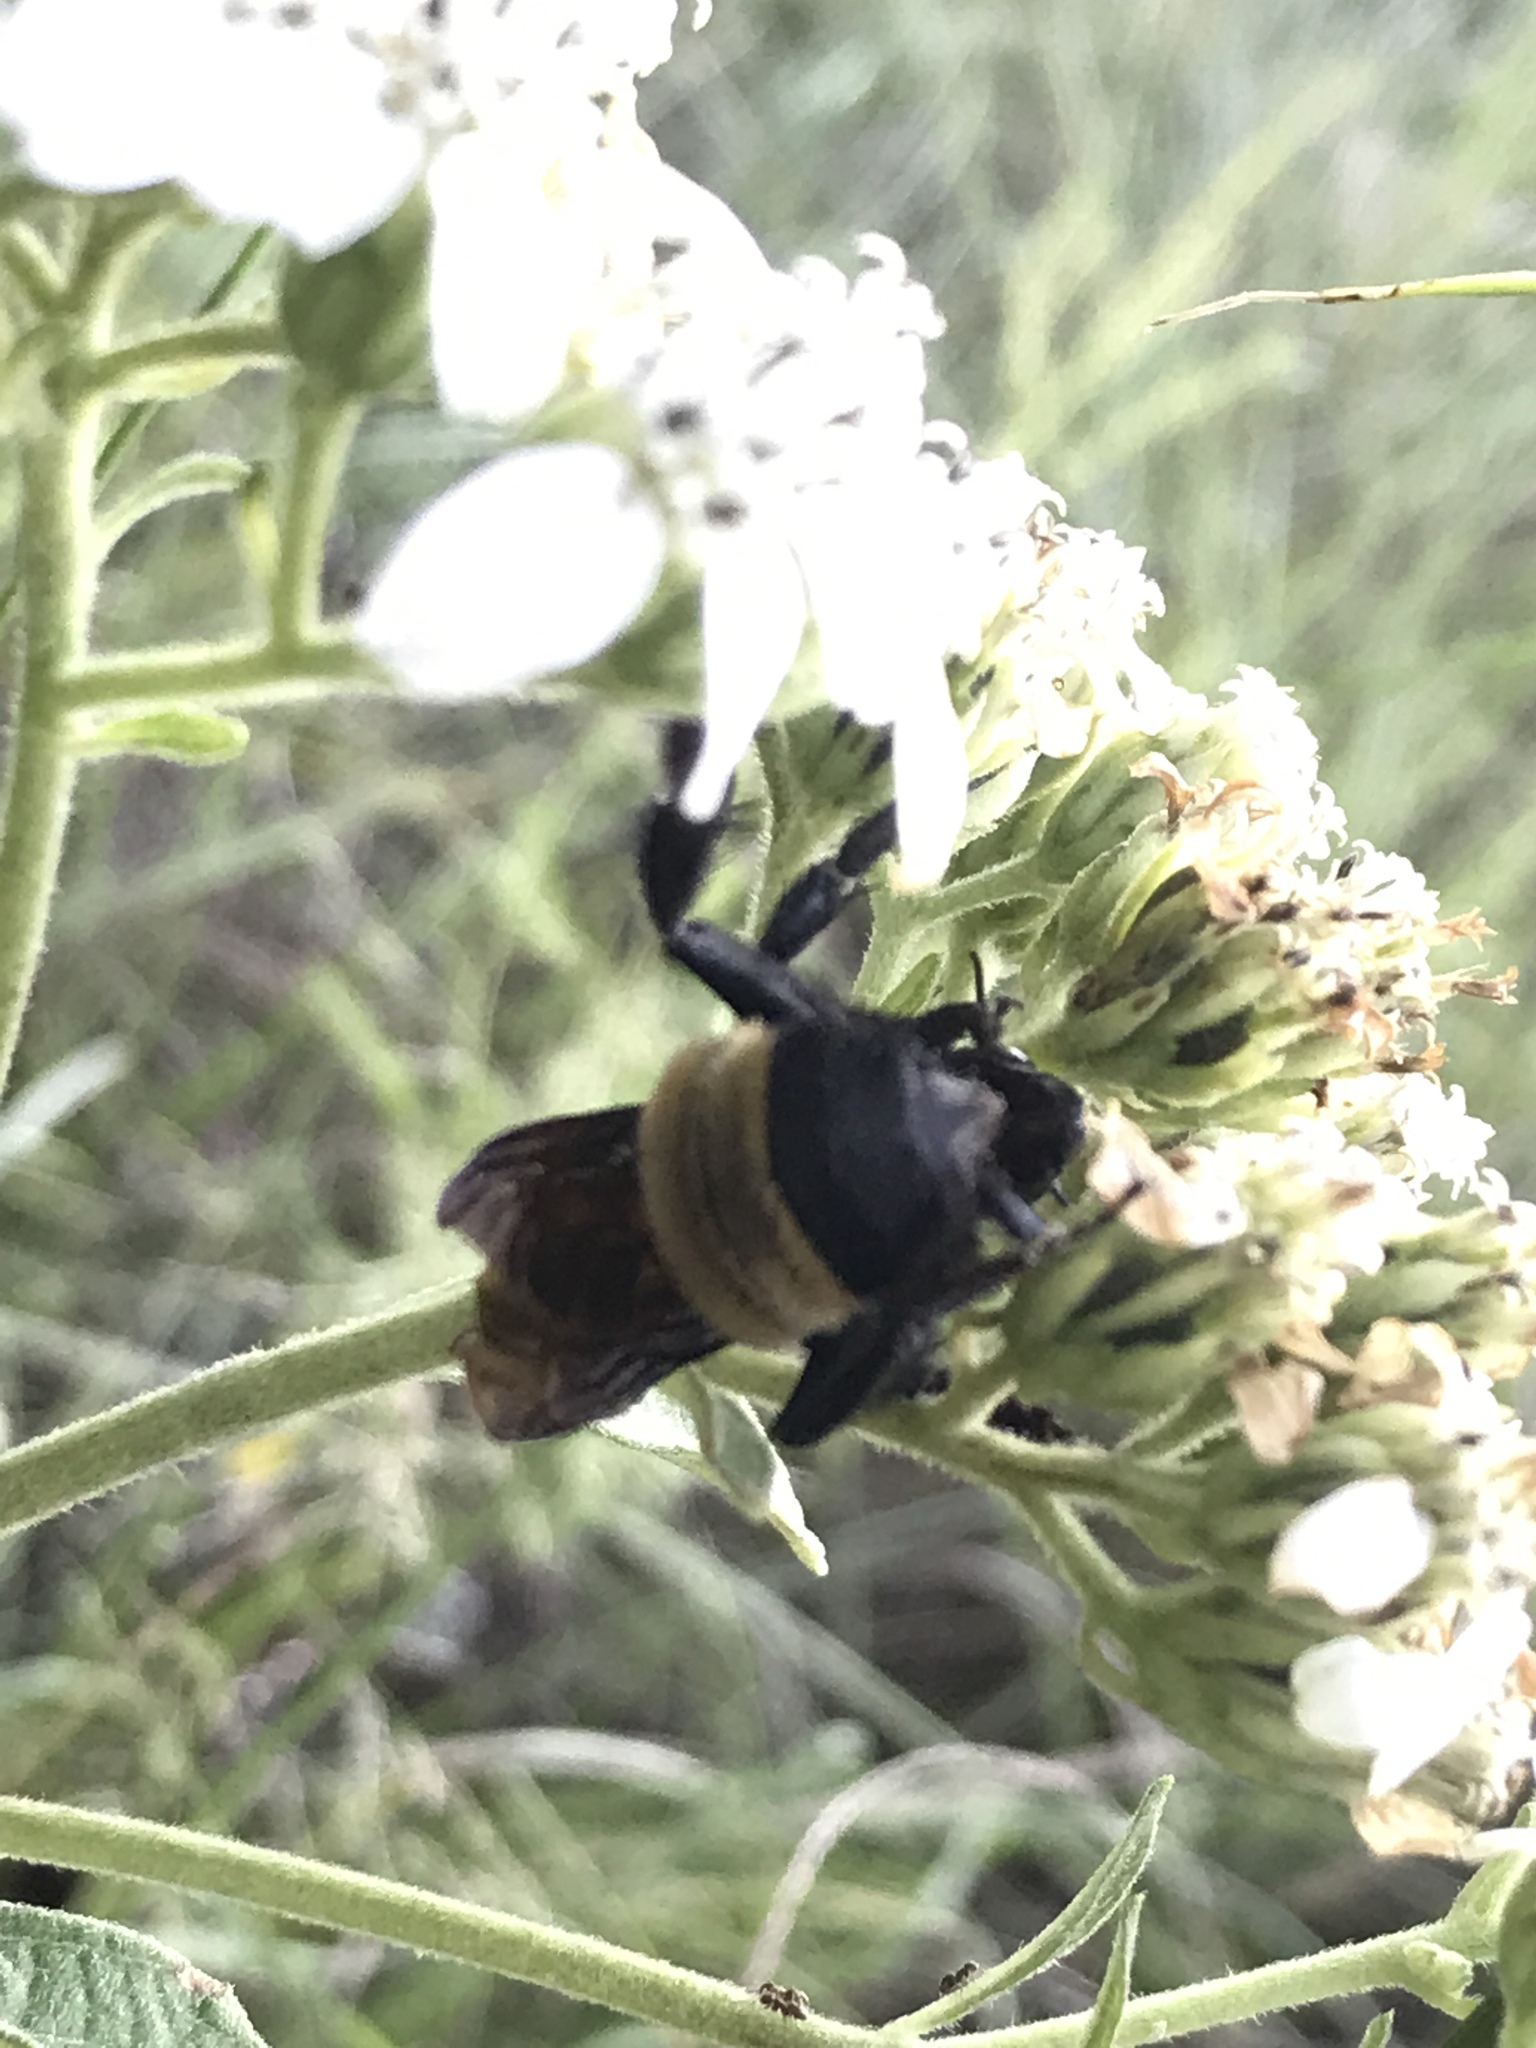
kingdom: Animalia
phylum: Arthropoda
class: Insecta
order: Hymenoptera
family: Apidae
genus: Bombus
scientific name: Bombus pensylvanicus
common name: Bumble bee
